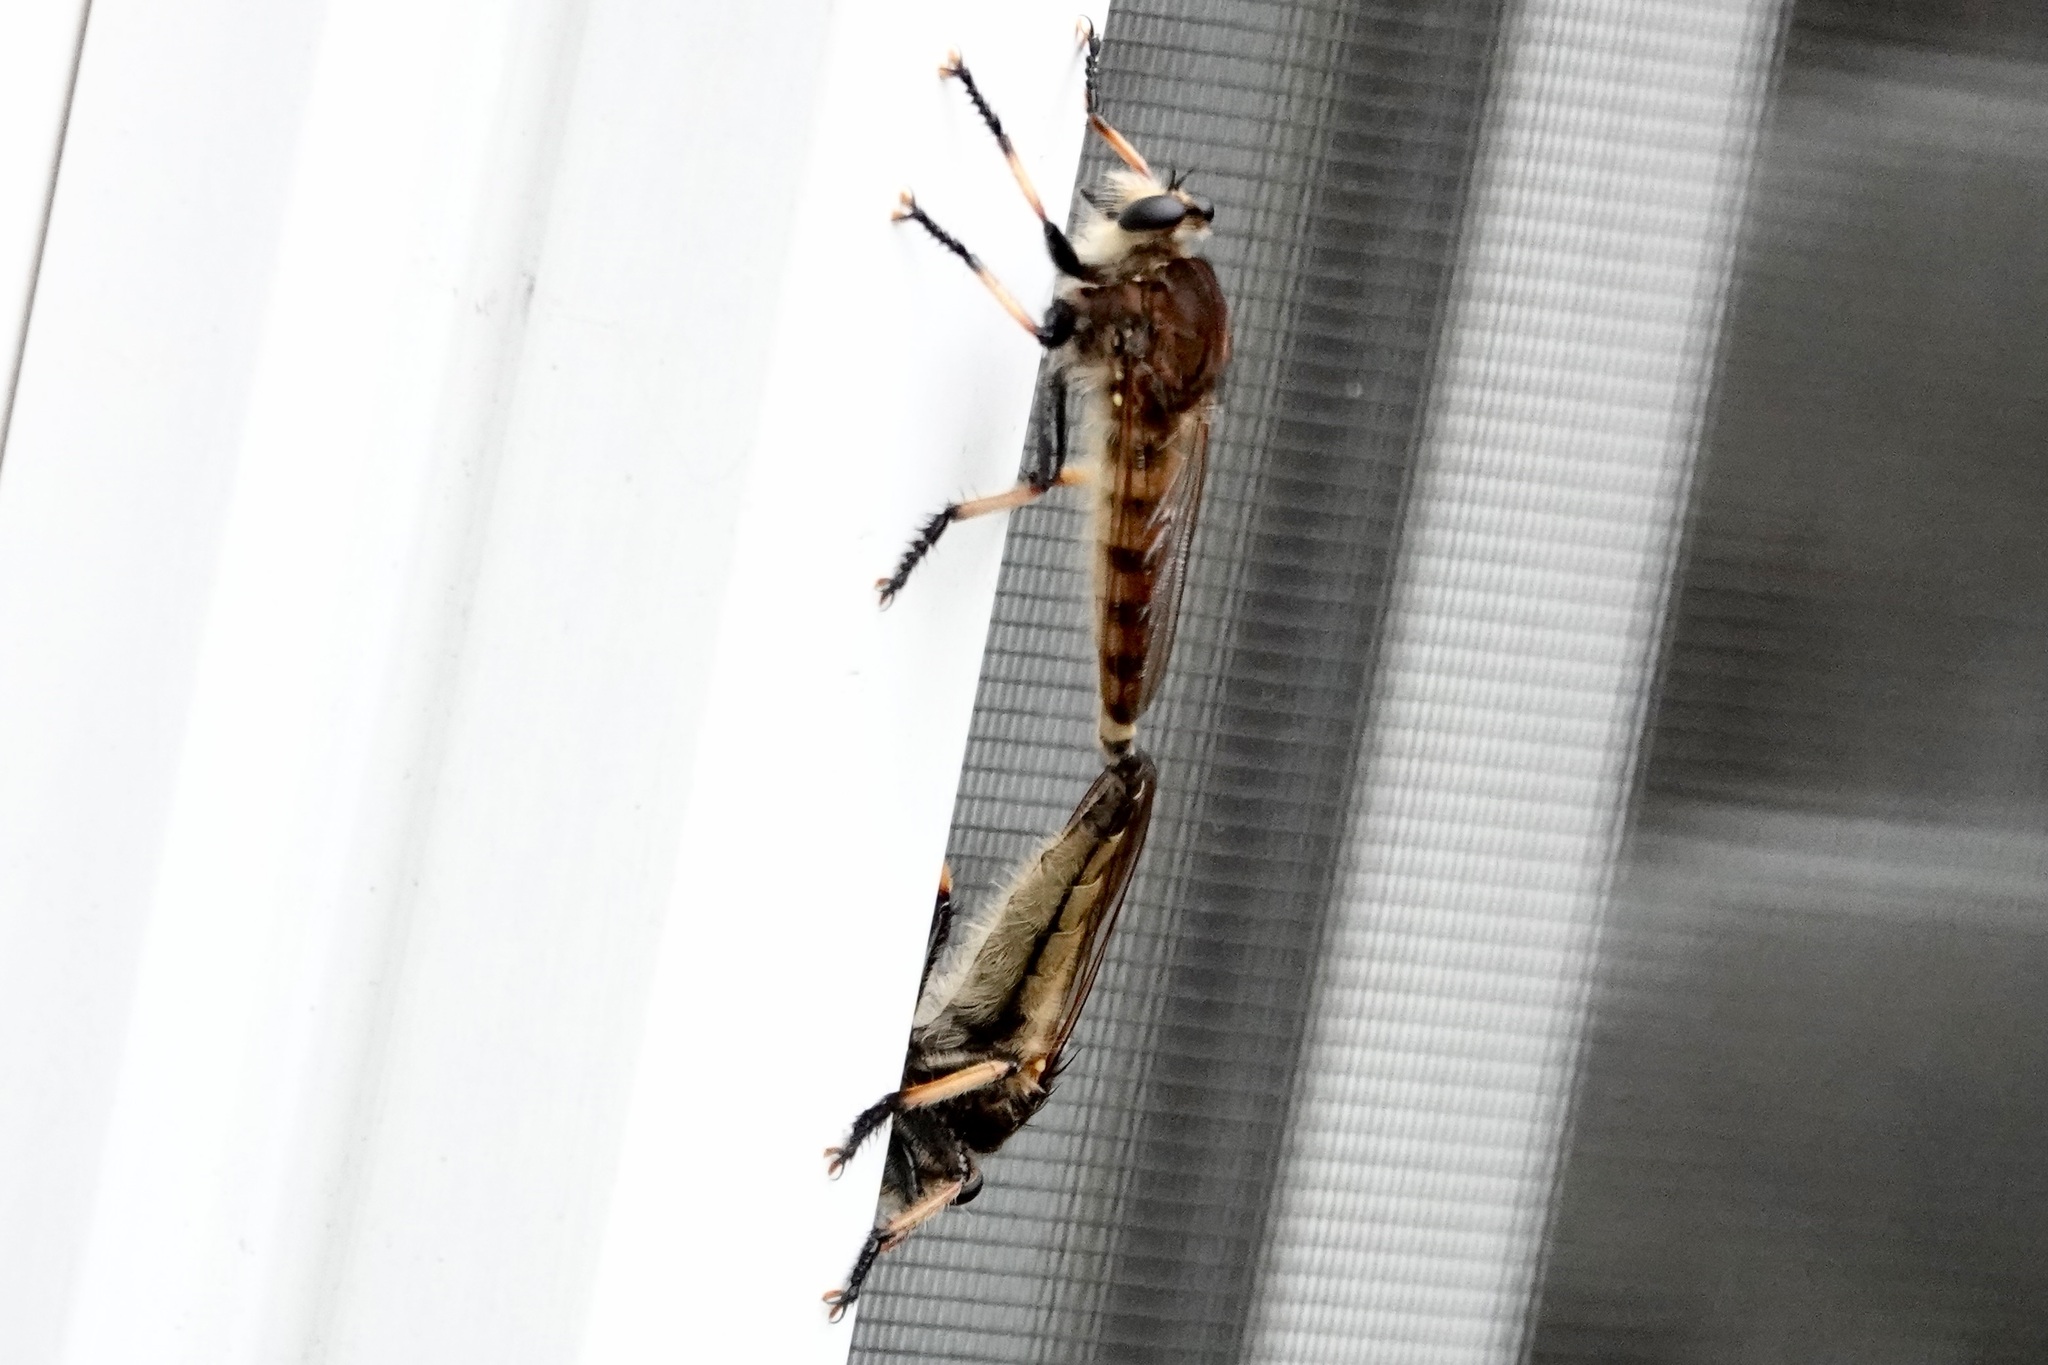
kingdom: Animalia
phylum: Arthropoda
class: Insecta
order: Diptera
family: Asilidae
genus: Promachus
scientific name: Promachus rufipes
